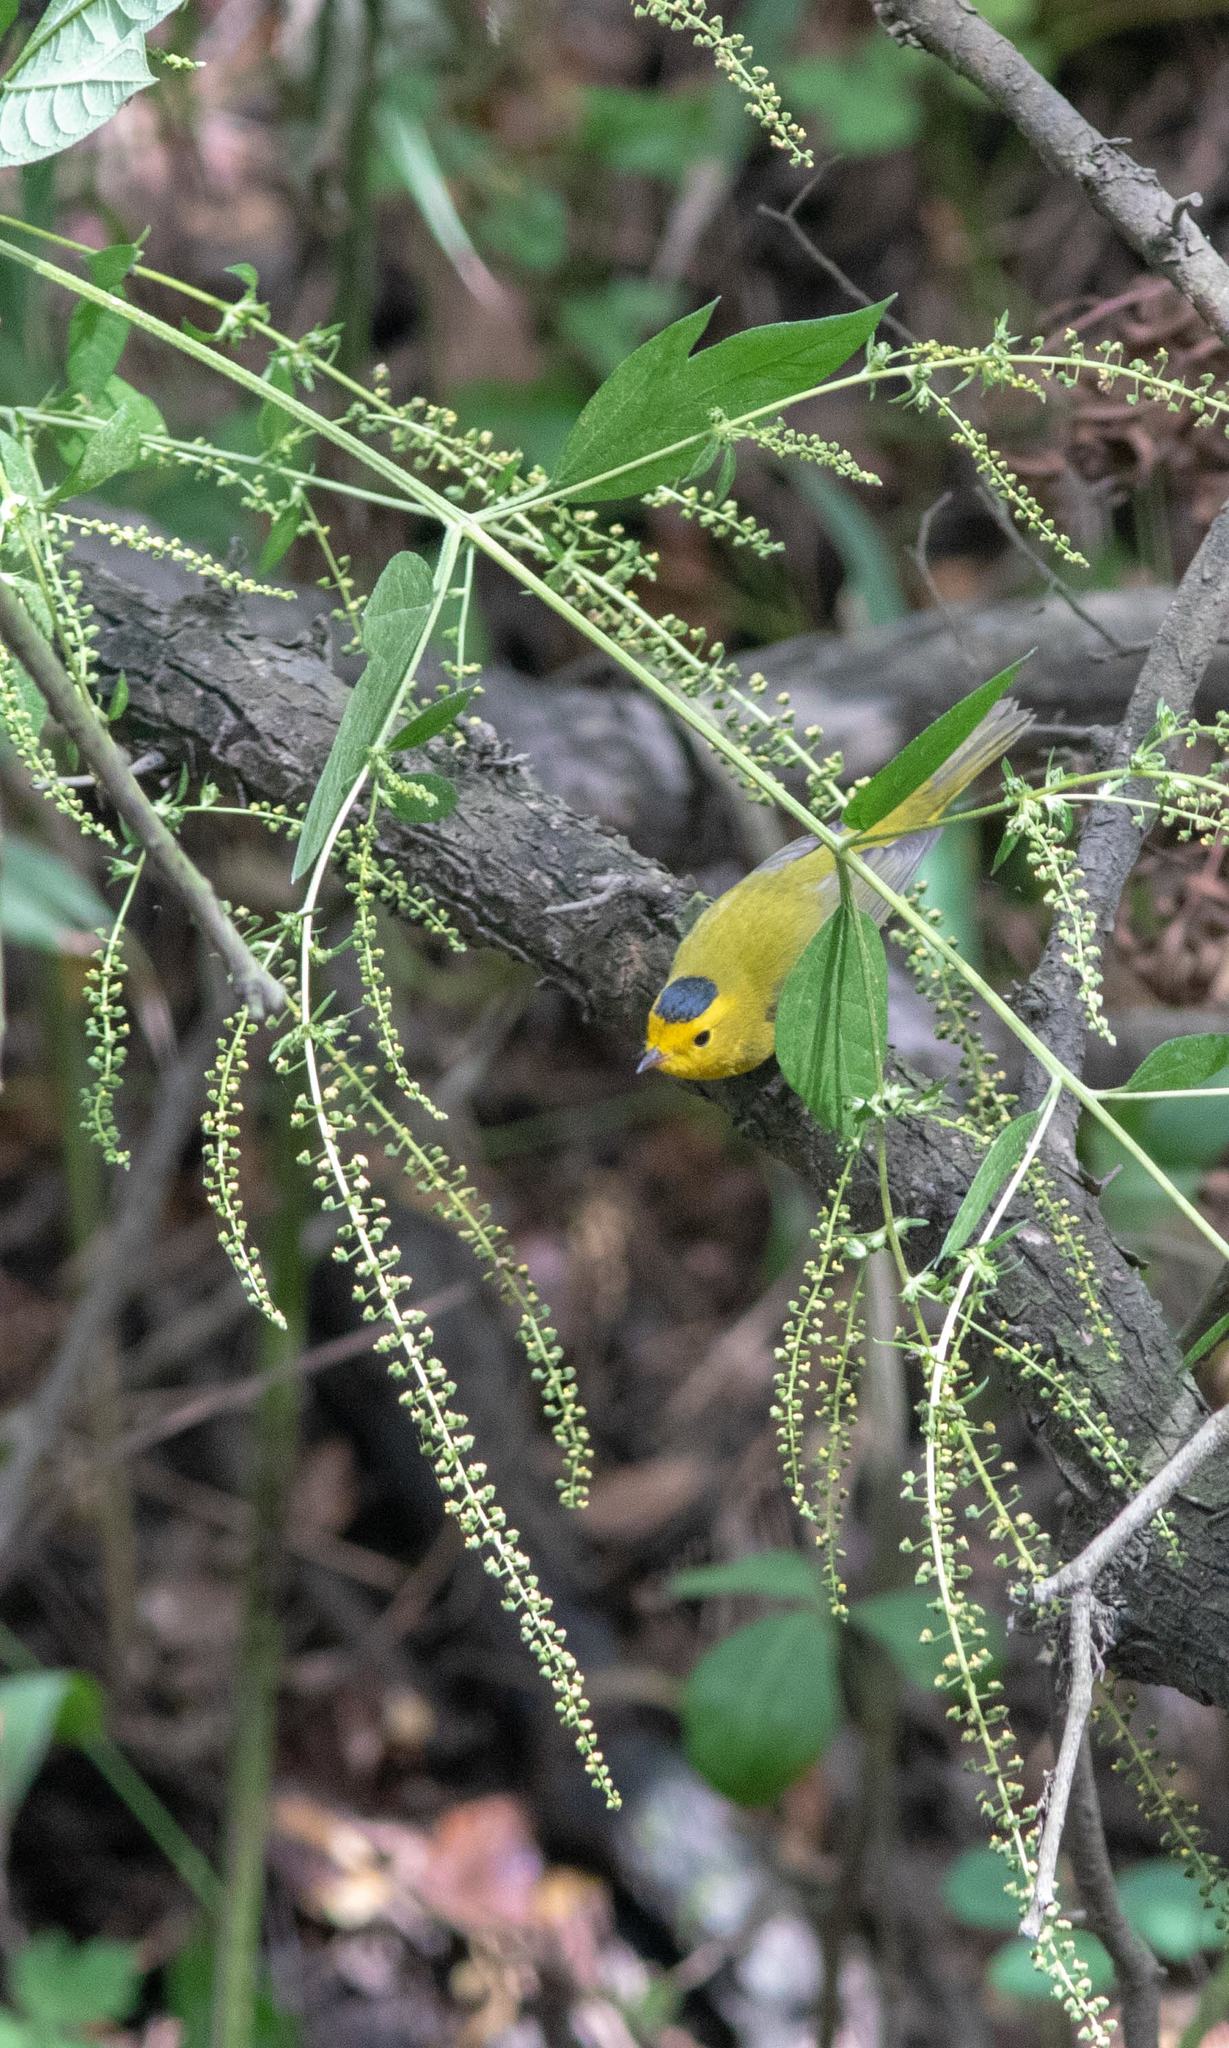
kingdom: Animalia
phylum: Chordata
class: Aves
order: Passeriformes
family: Parulidae
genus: Cardellina
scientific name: Cardellina pusilla
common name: Wilson's warbler
